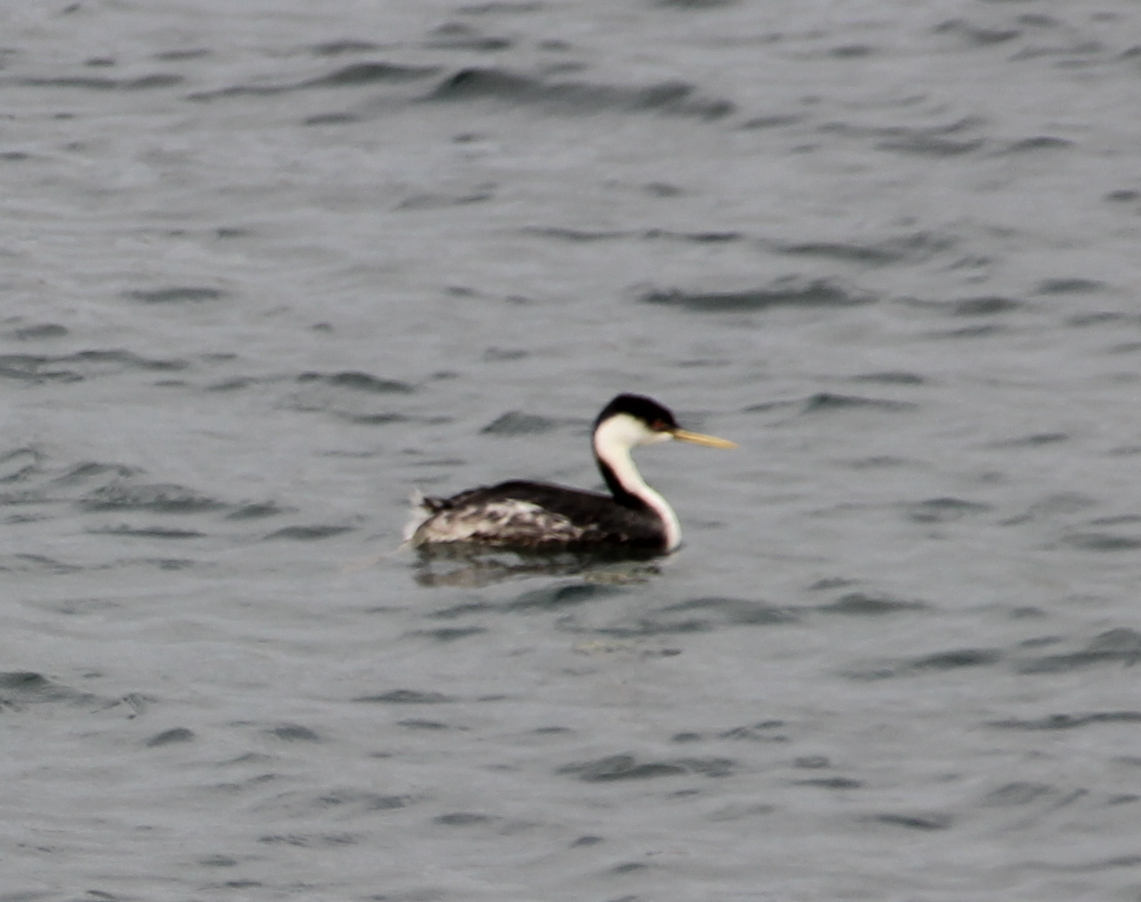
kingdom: Animalia
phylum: Chordata
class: Aves
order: Podicipediformes
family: Podicipedidae
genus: Aechmophorus
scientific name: Aechmophorus occidentalis
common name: Western grebe
